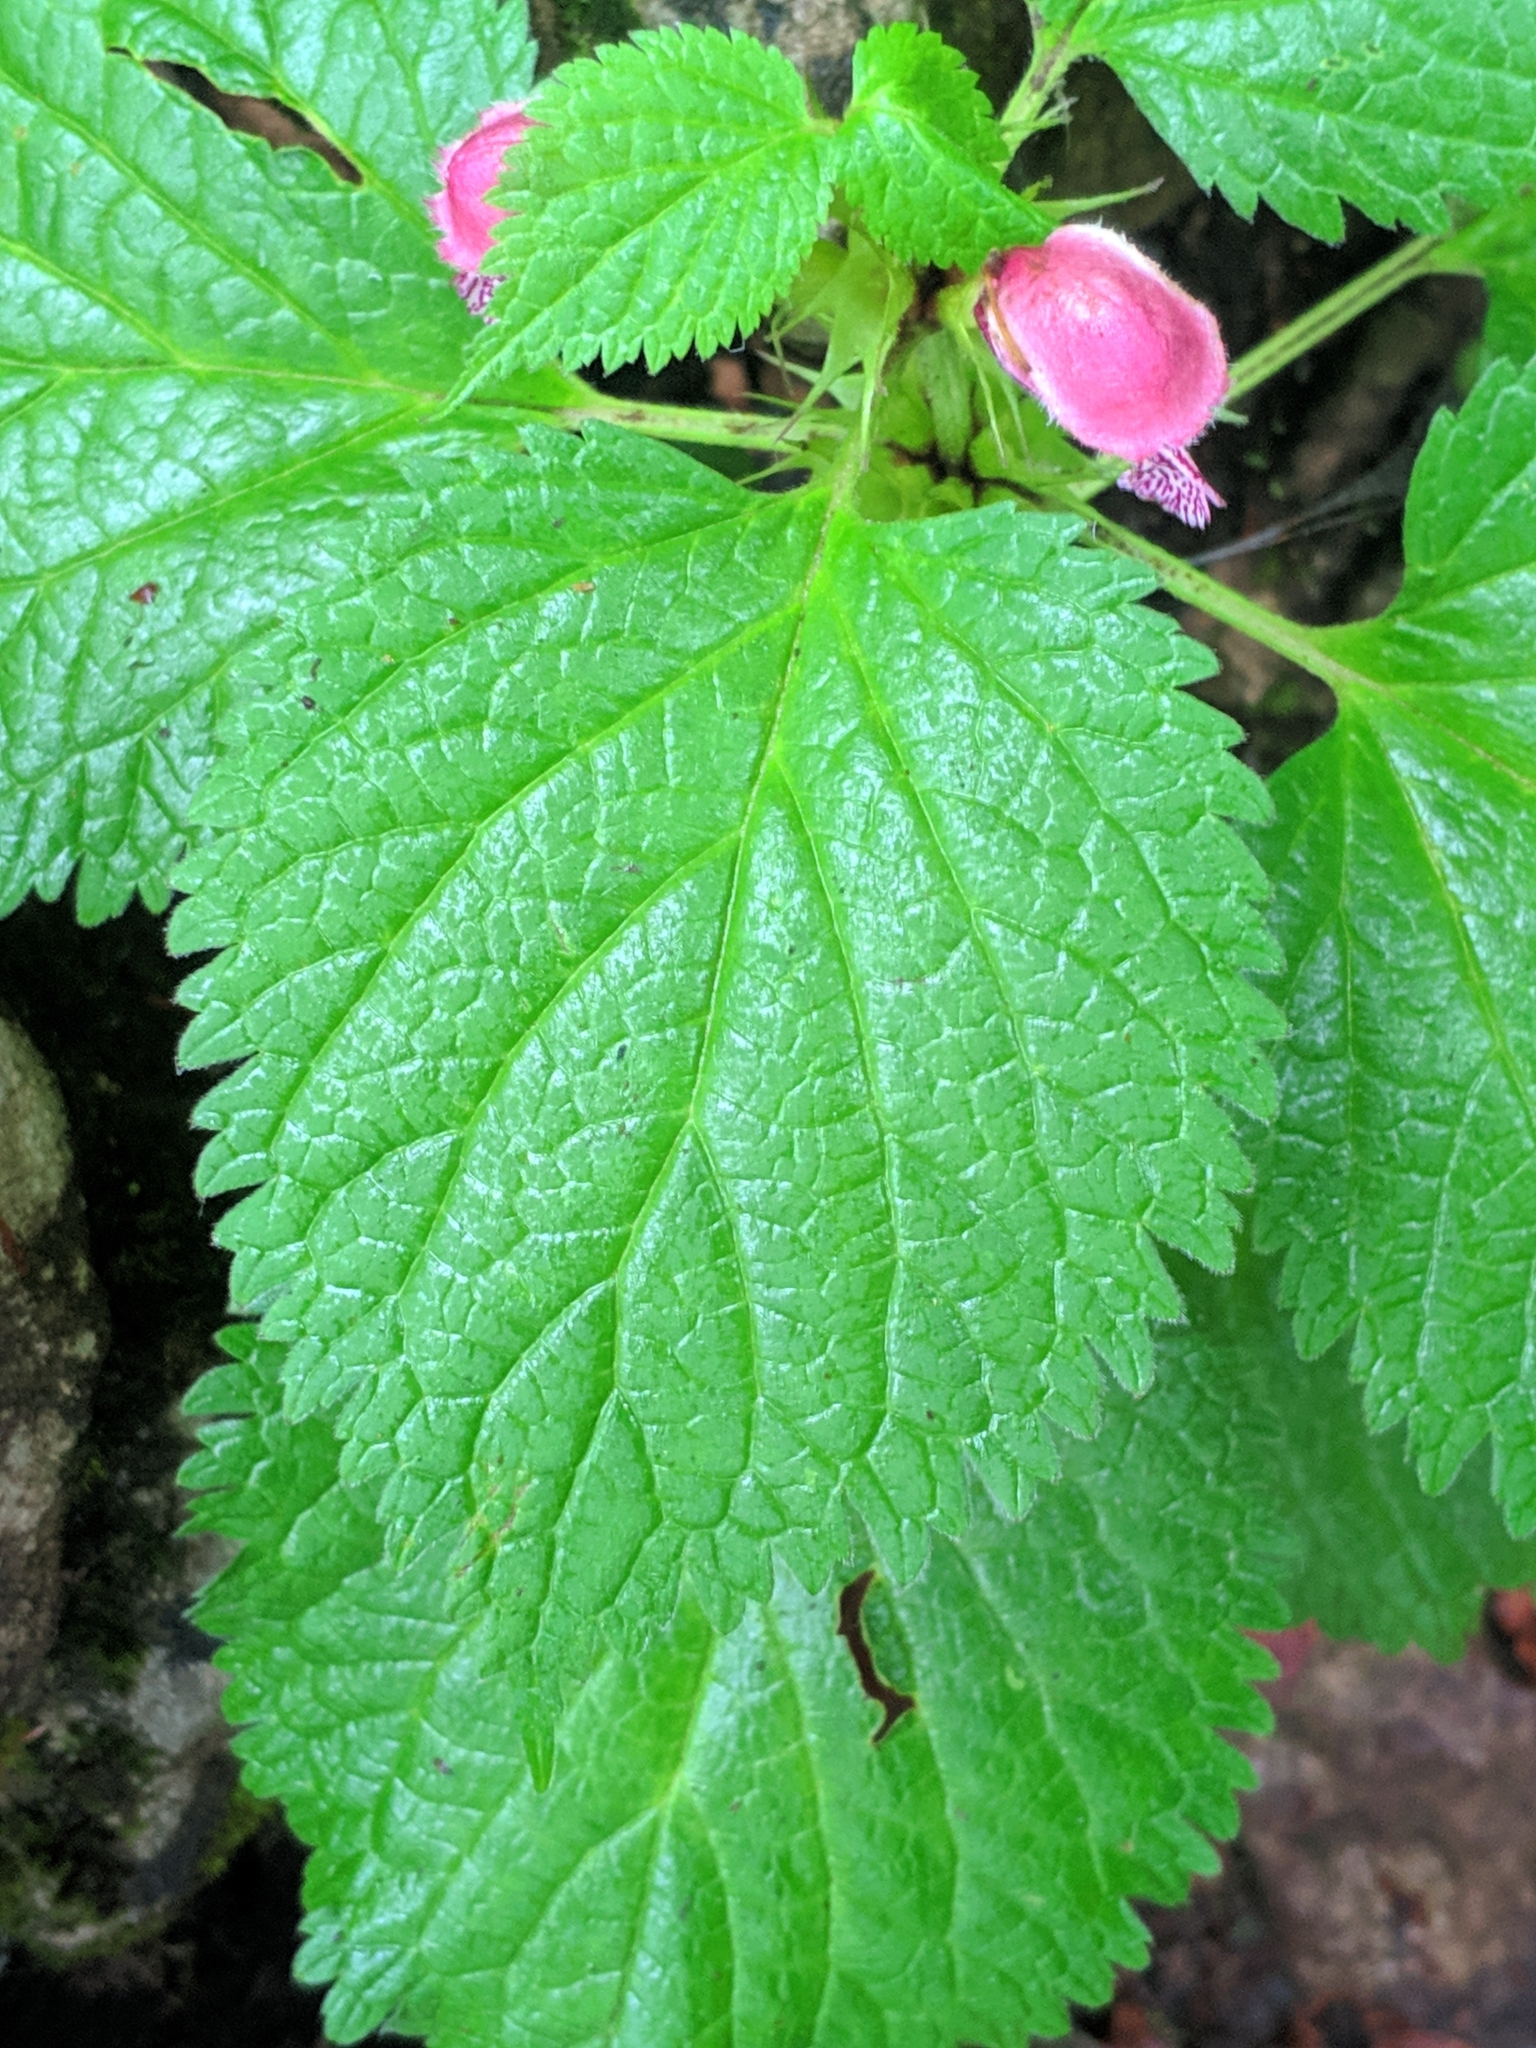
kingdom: Plantae
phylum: Tracheophyta
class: Magnoliopsida
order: Lamiales
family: Lamiaceae
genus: Lamium
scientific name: Lamium orvala
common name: Balm-leaved archangel
